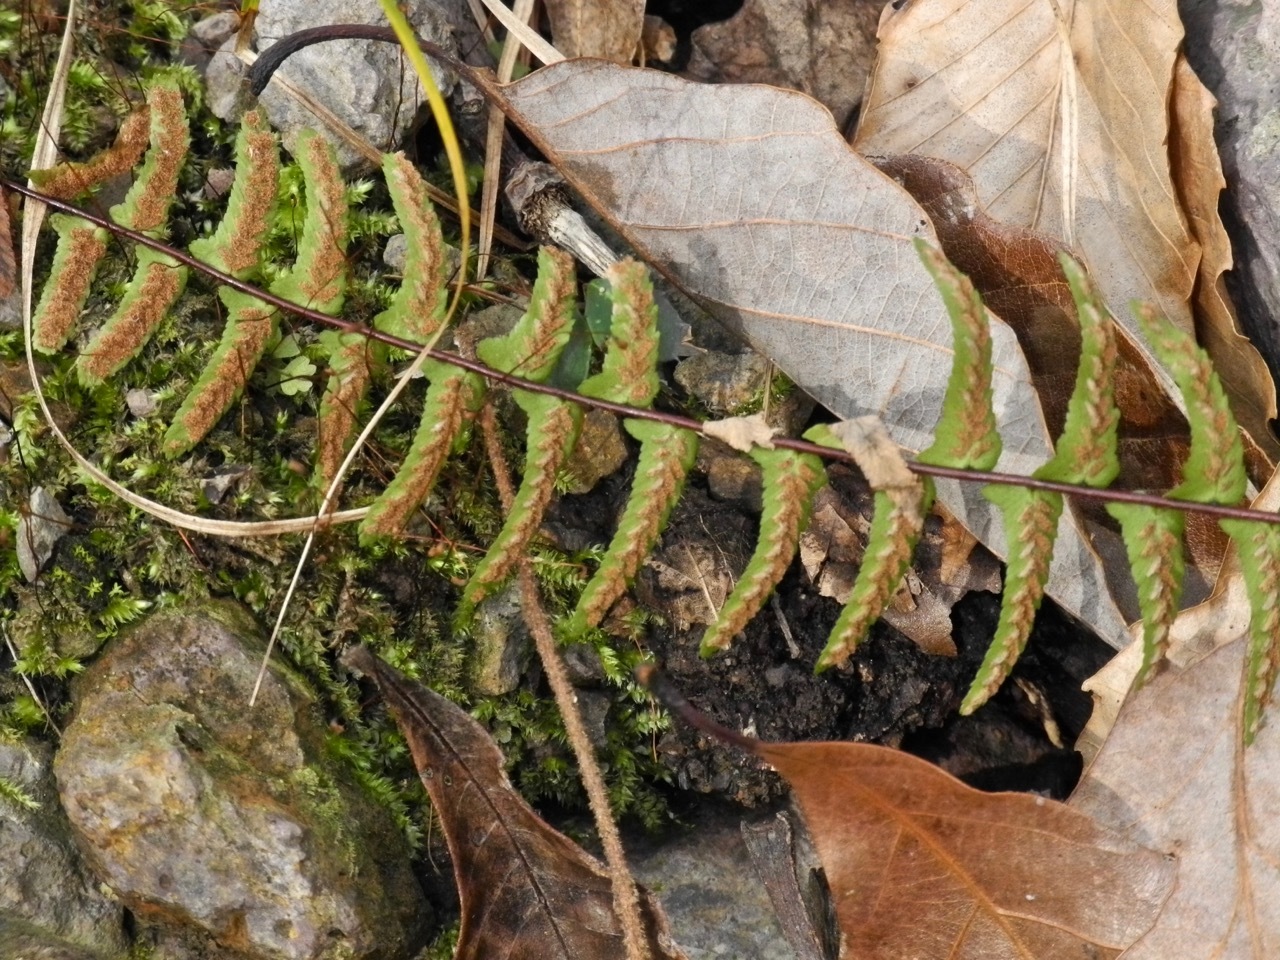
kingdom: Plantae
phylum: Tracheophyta
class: Polypodiopsida
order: Polypodiales
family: Aspleniaceae
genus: Asplenium
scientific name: Asplenium platyneuron
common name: Ebony spleenwort
